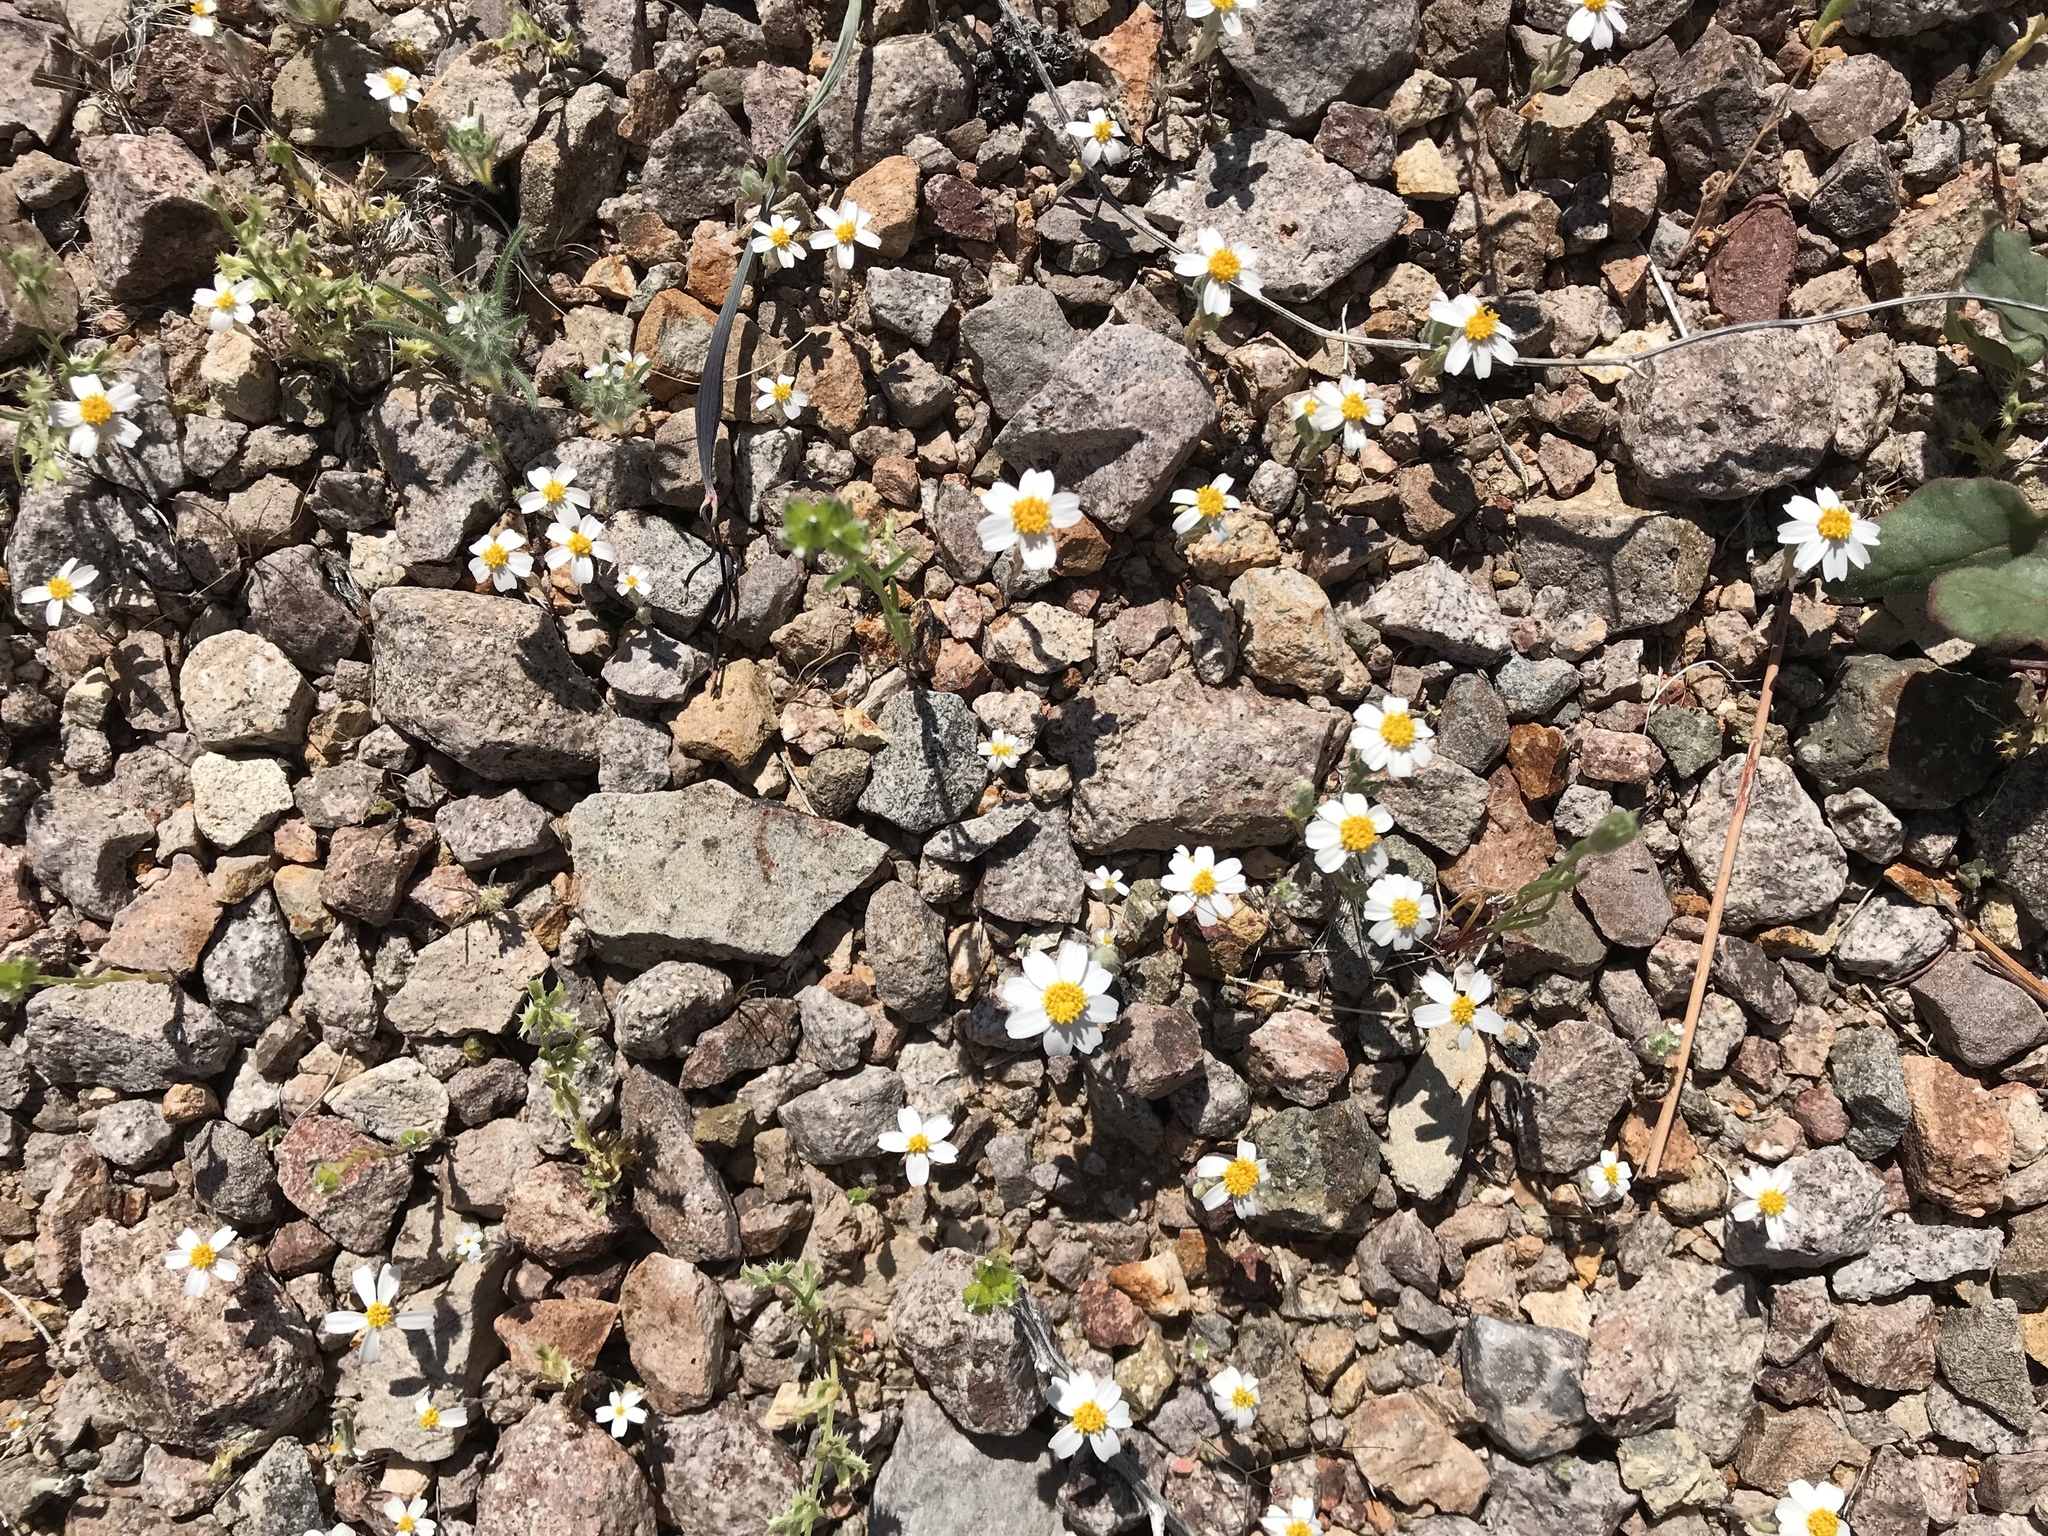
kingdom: Plantae
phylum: Tracheophyta
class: Magnoliopsida
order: Asterales
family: Asteraceae
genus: Eriophyllum
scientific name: Eriophyllum lanosum
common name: White easter-bonnets
